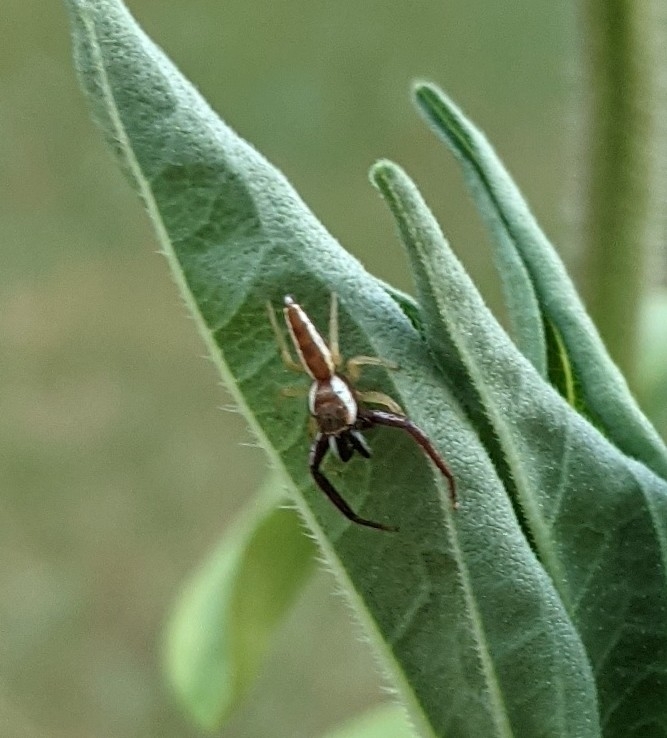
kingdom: Animalia
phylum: Arthropoda
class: Arachnida
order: Araneae
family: Salticidae
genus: Hentzia
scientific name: Hentzia palmarum
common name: Common hentz jumping spider
